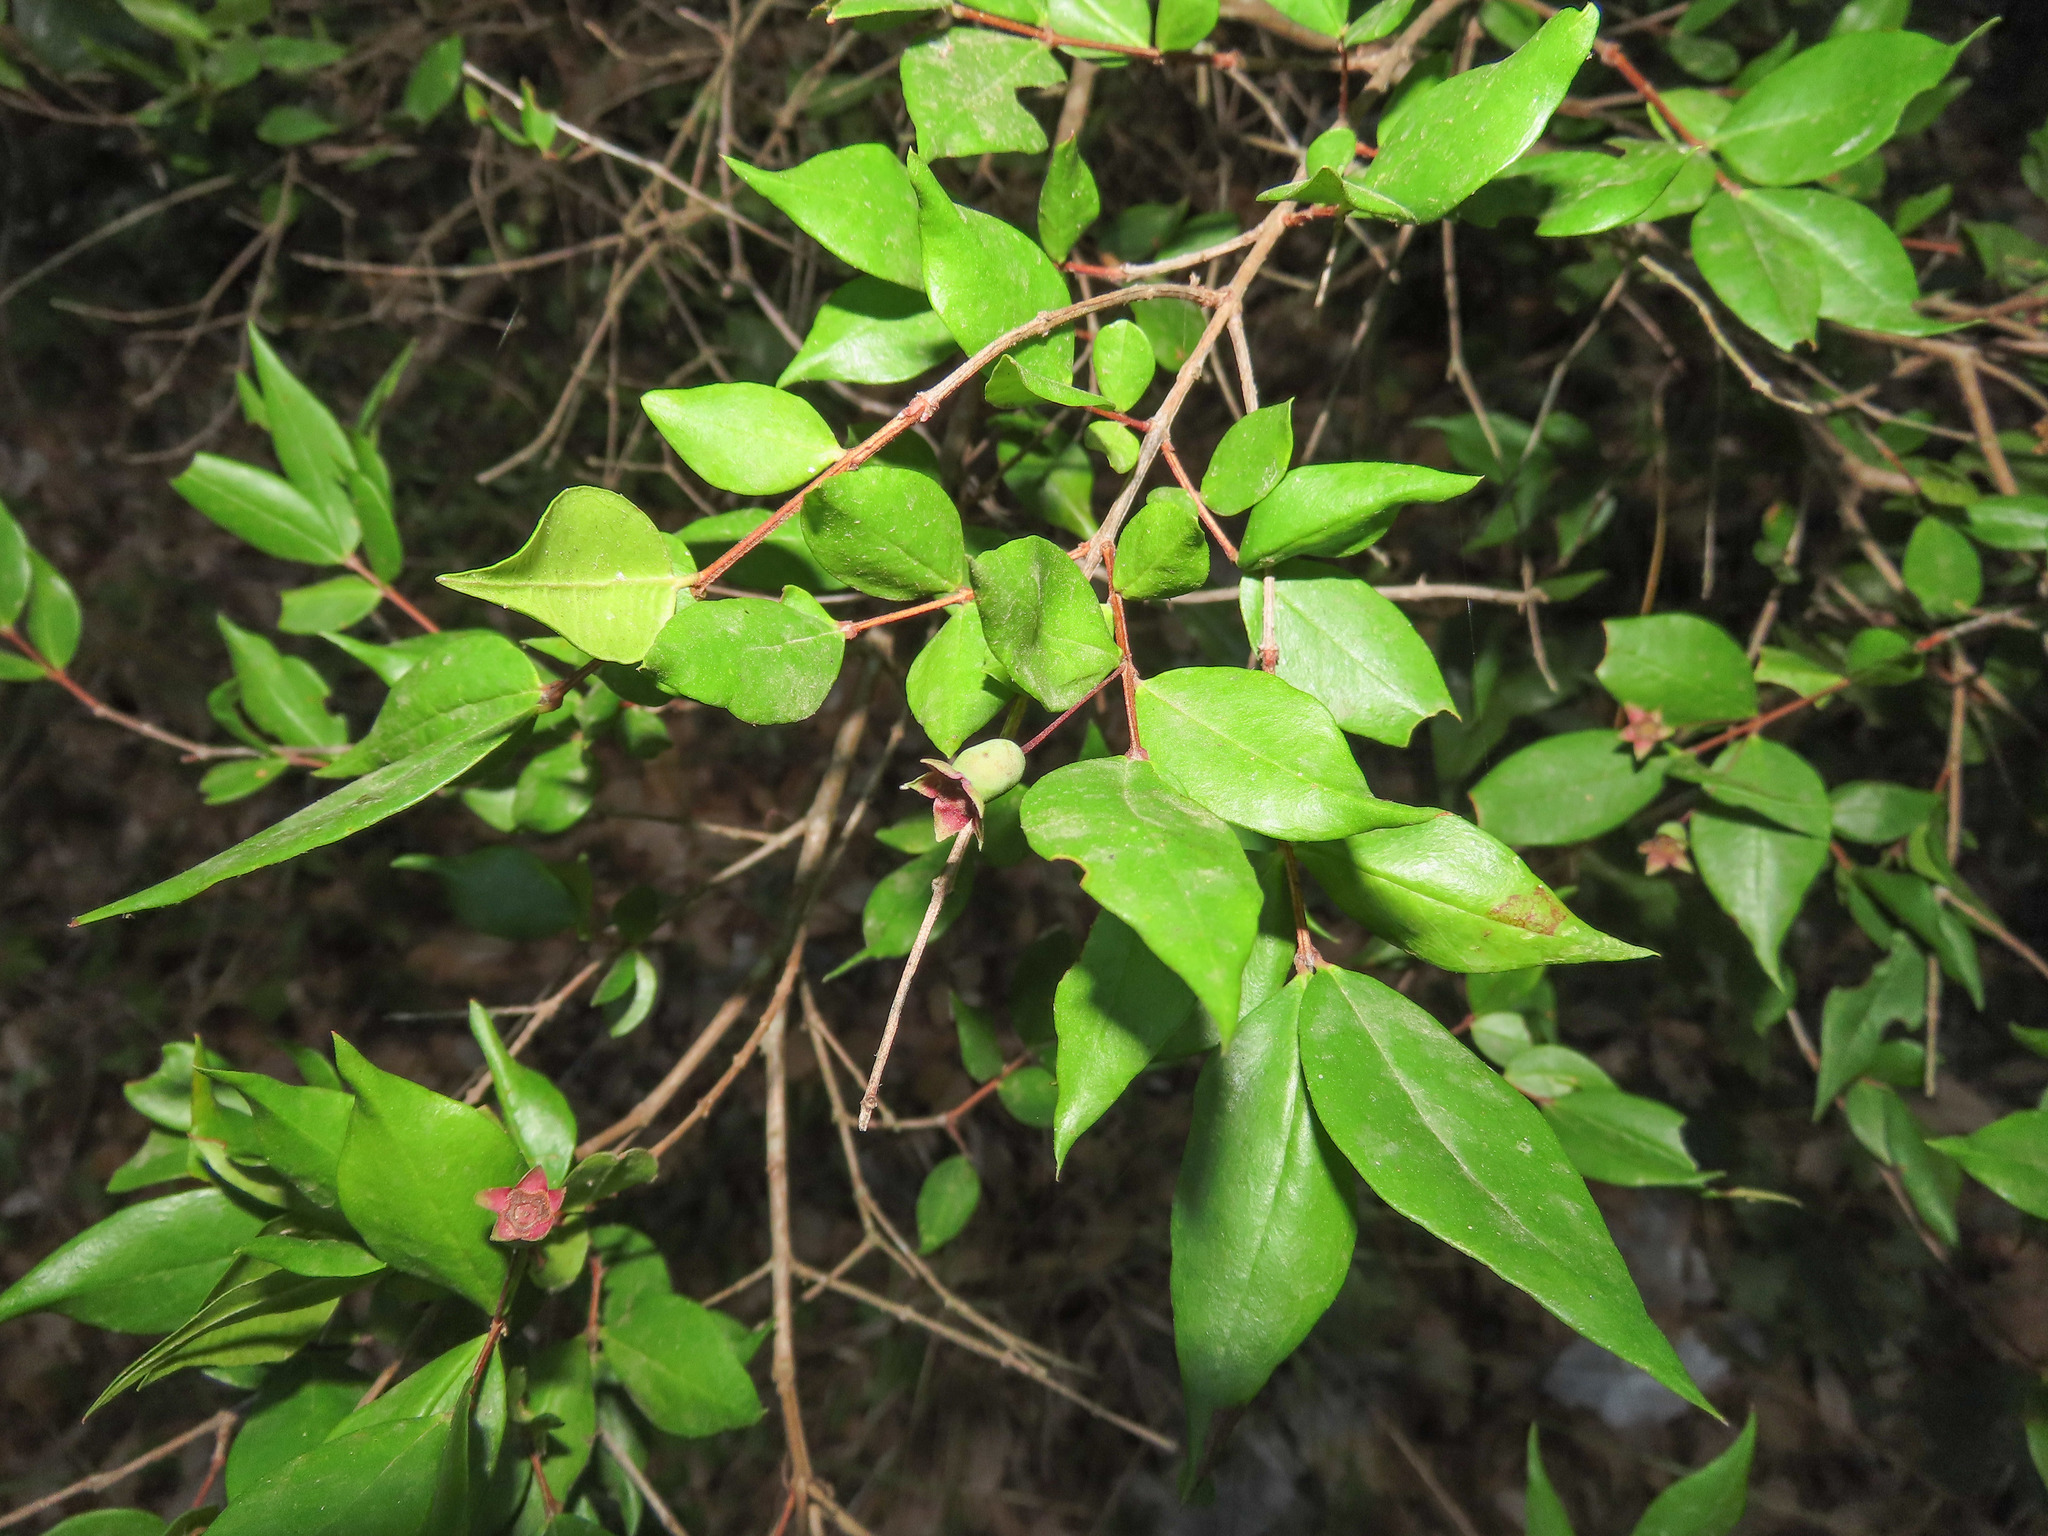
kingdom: Plantae
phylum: Tracheophyta
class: Magnoliopsida
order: Myrtales
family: Myrtaceae
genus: Myrtus
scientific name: Myrtus communis
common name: Myrtle
